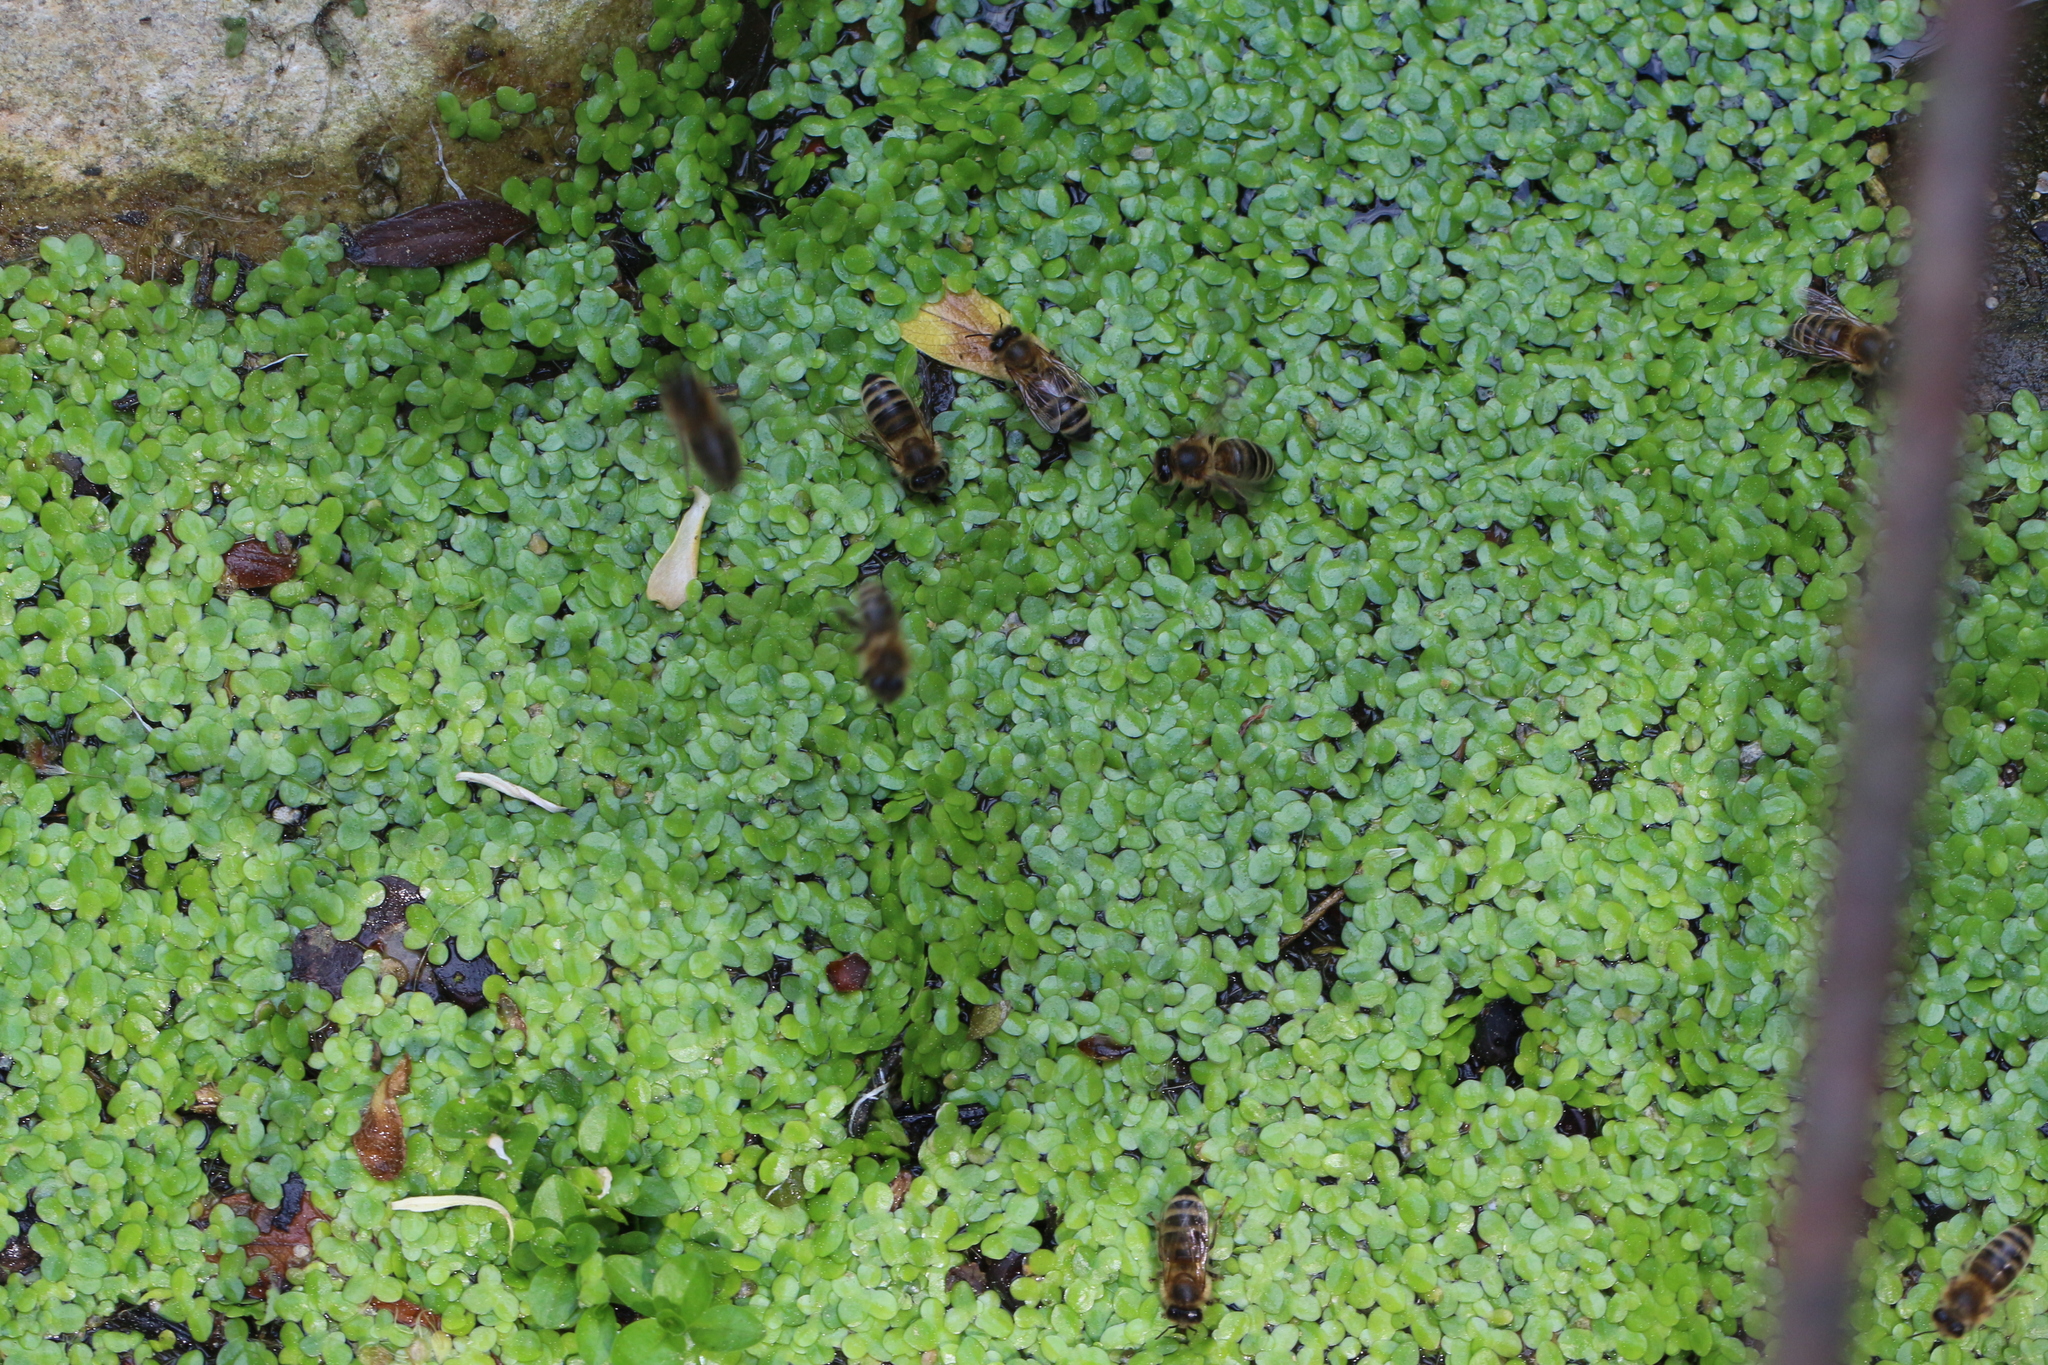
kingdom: Animalia
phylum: Arthropoda
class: Insecta
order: Hymenoptera
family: Apidae
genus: Apis
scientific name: Apis mellifera
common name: Honey bee
